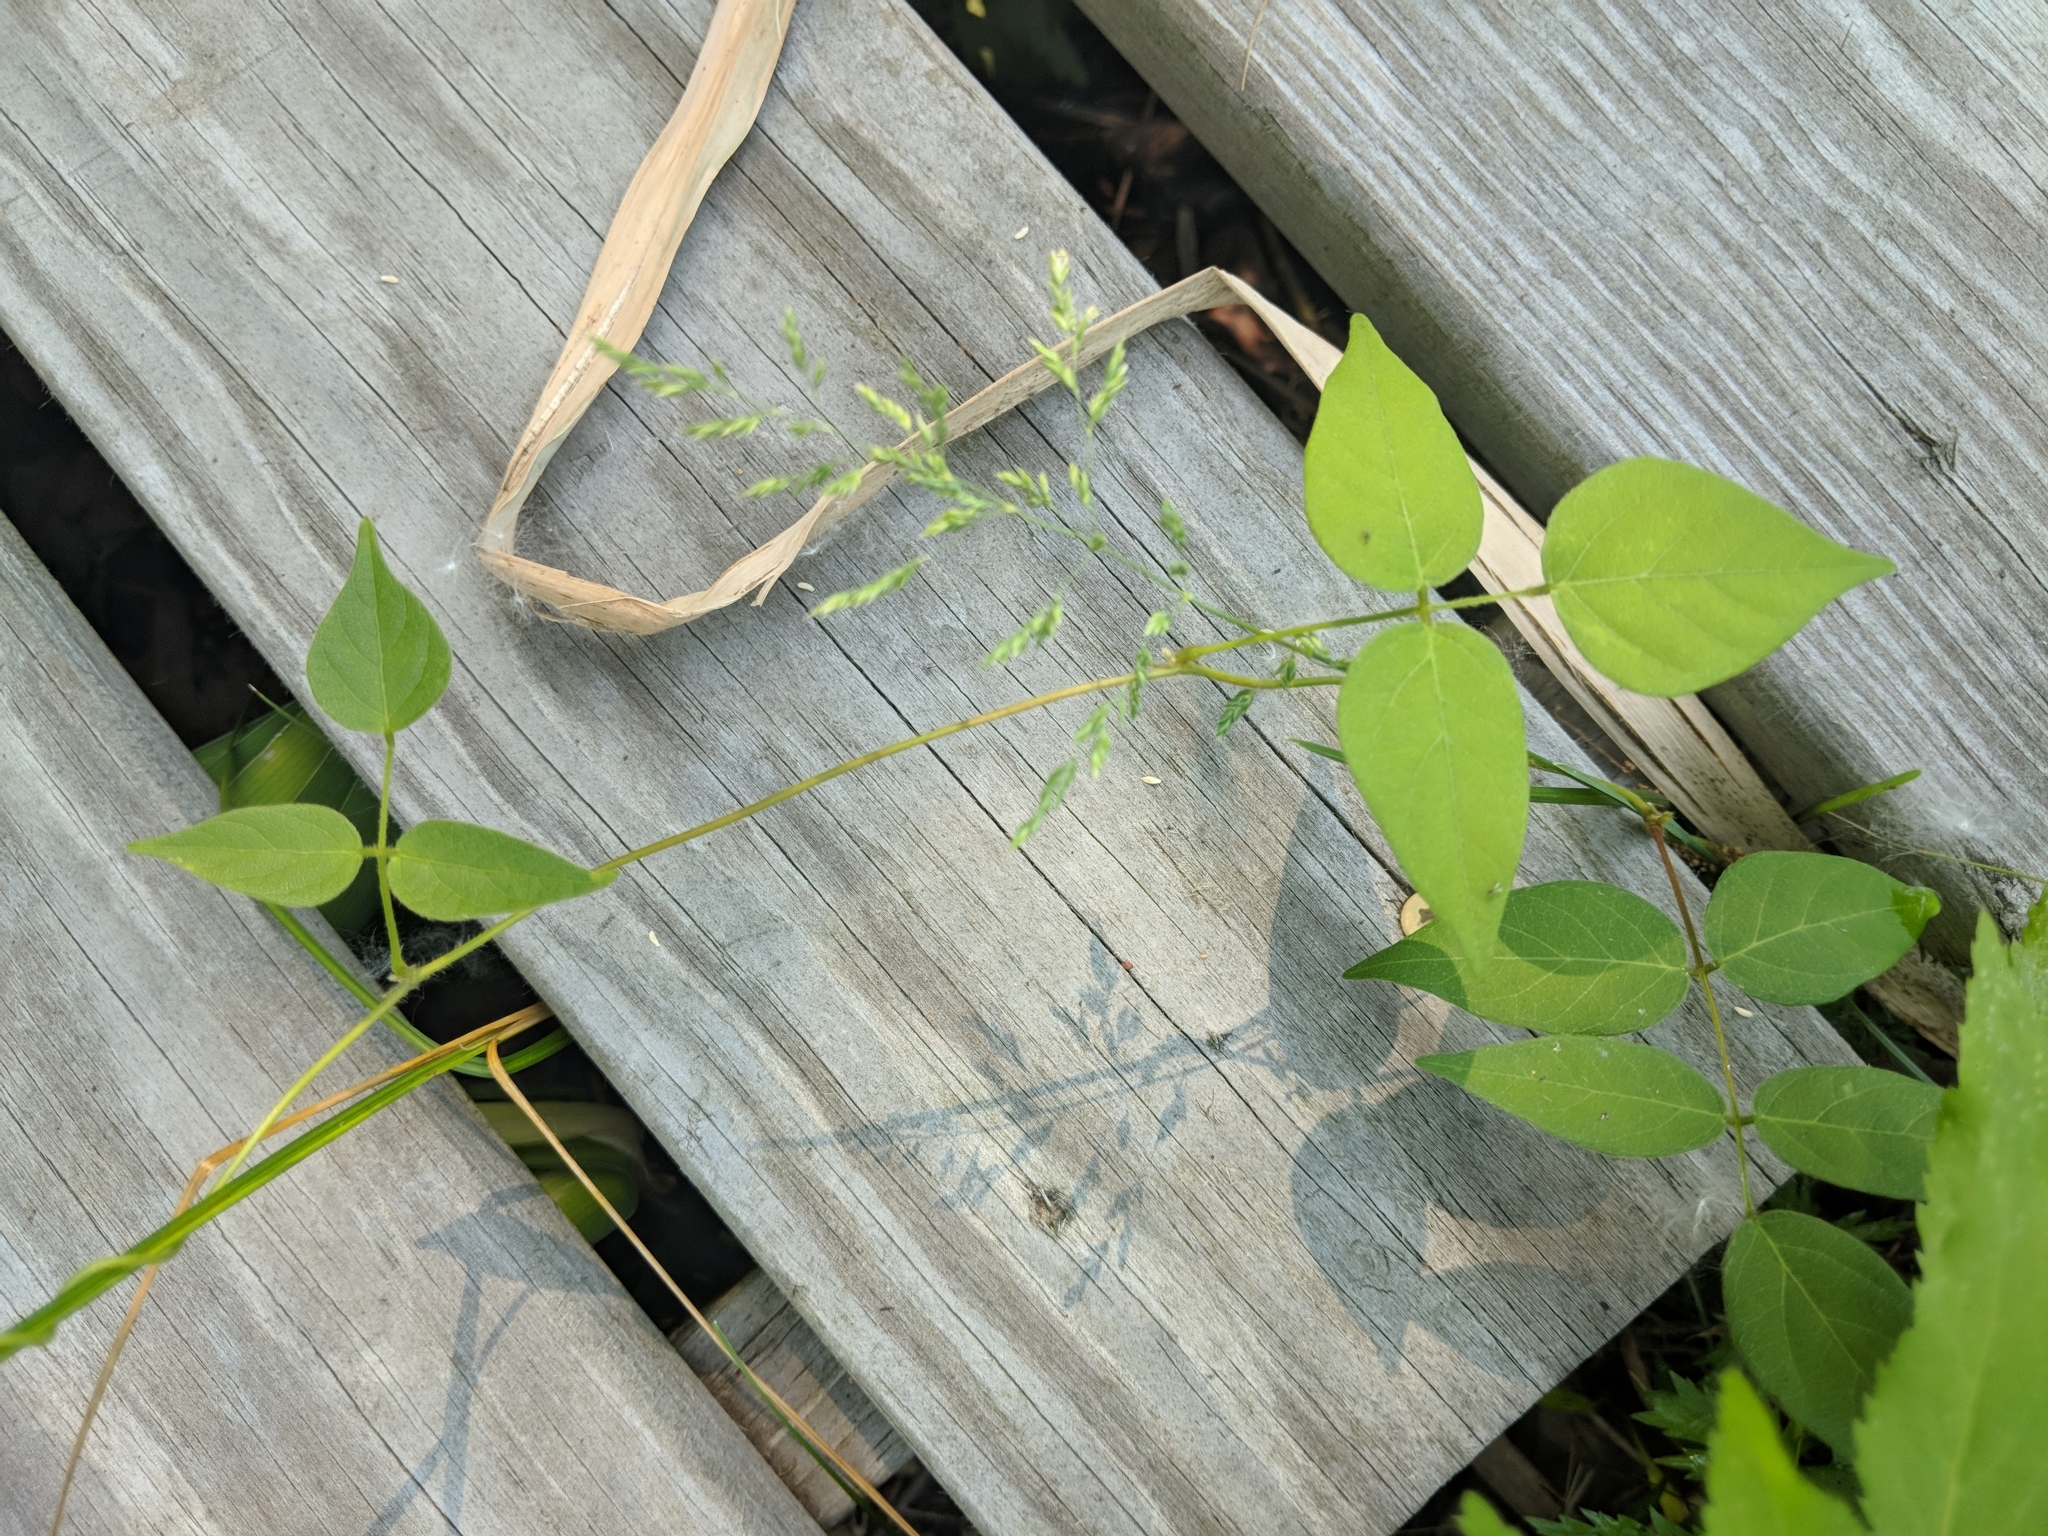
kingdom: Plantae
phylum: Tracheophyta
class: Magnoliopsida
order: Fabales
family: Fabaceae
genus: Amphicarpaea
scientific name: Amphicarpaea bracteata
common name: American hog peanut
